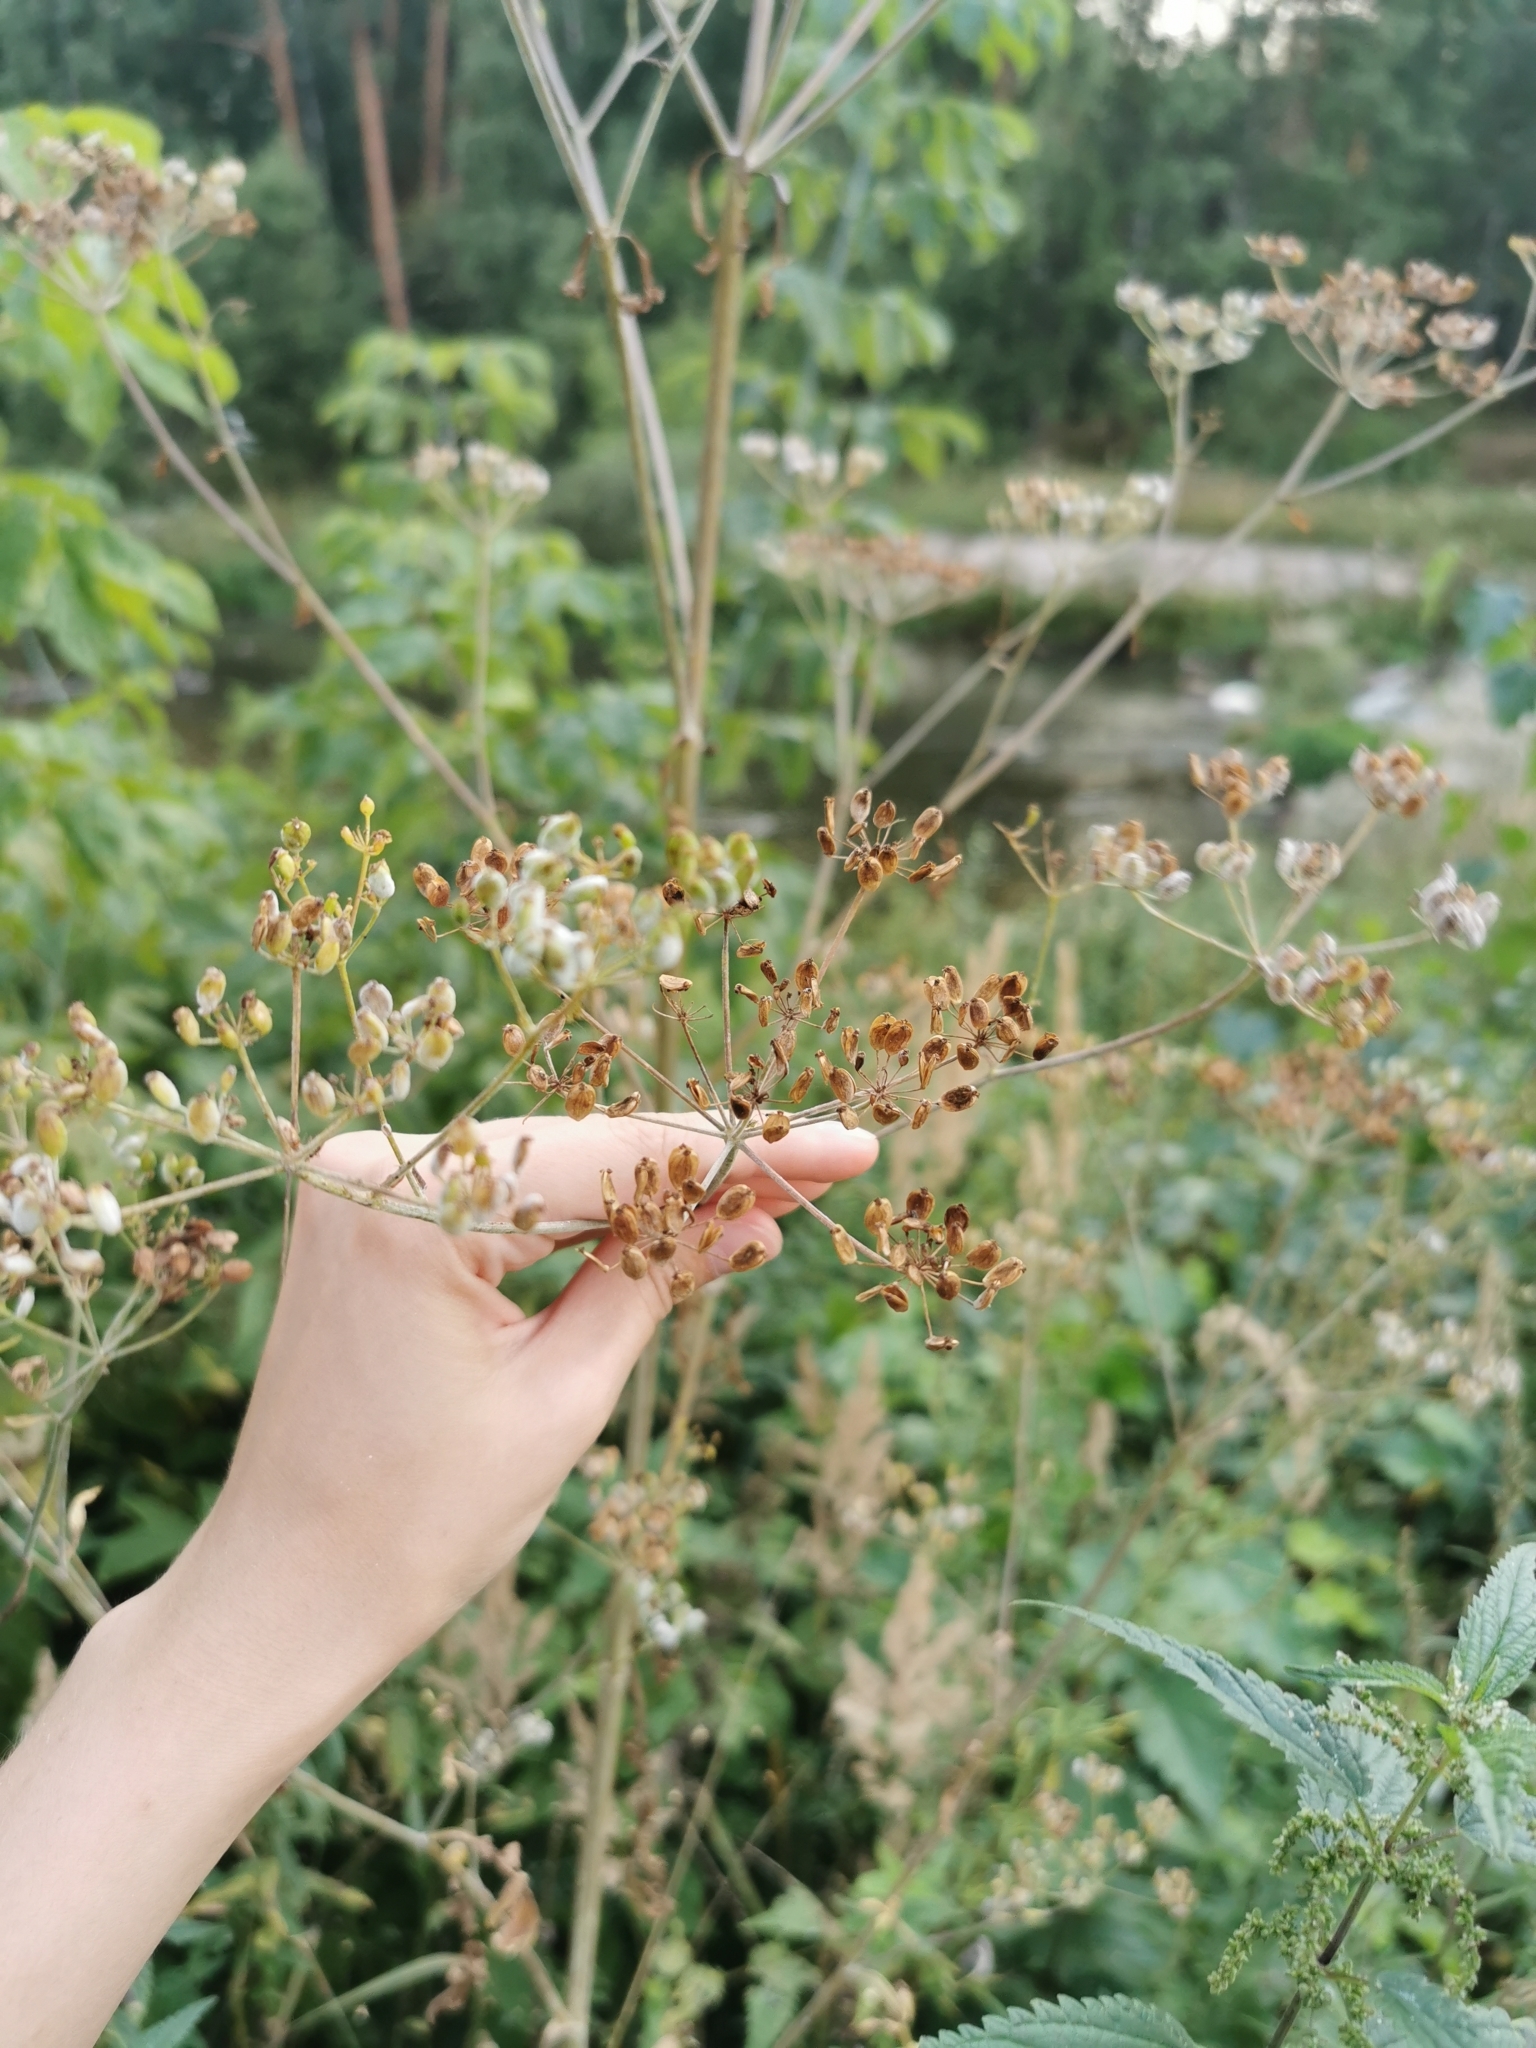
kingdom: Plantae
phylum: Tracheophyta
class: Magnoliopsida
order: Apiales
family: Apiaceae
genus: Pastinaca
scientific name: Pastinaca sativa
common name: Wild parsnip
